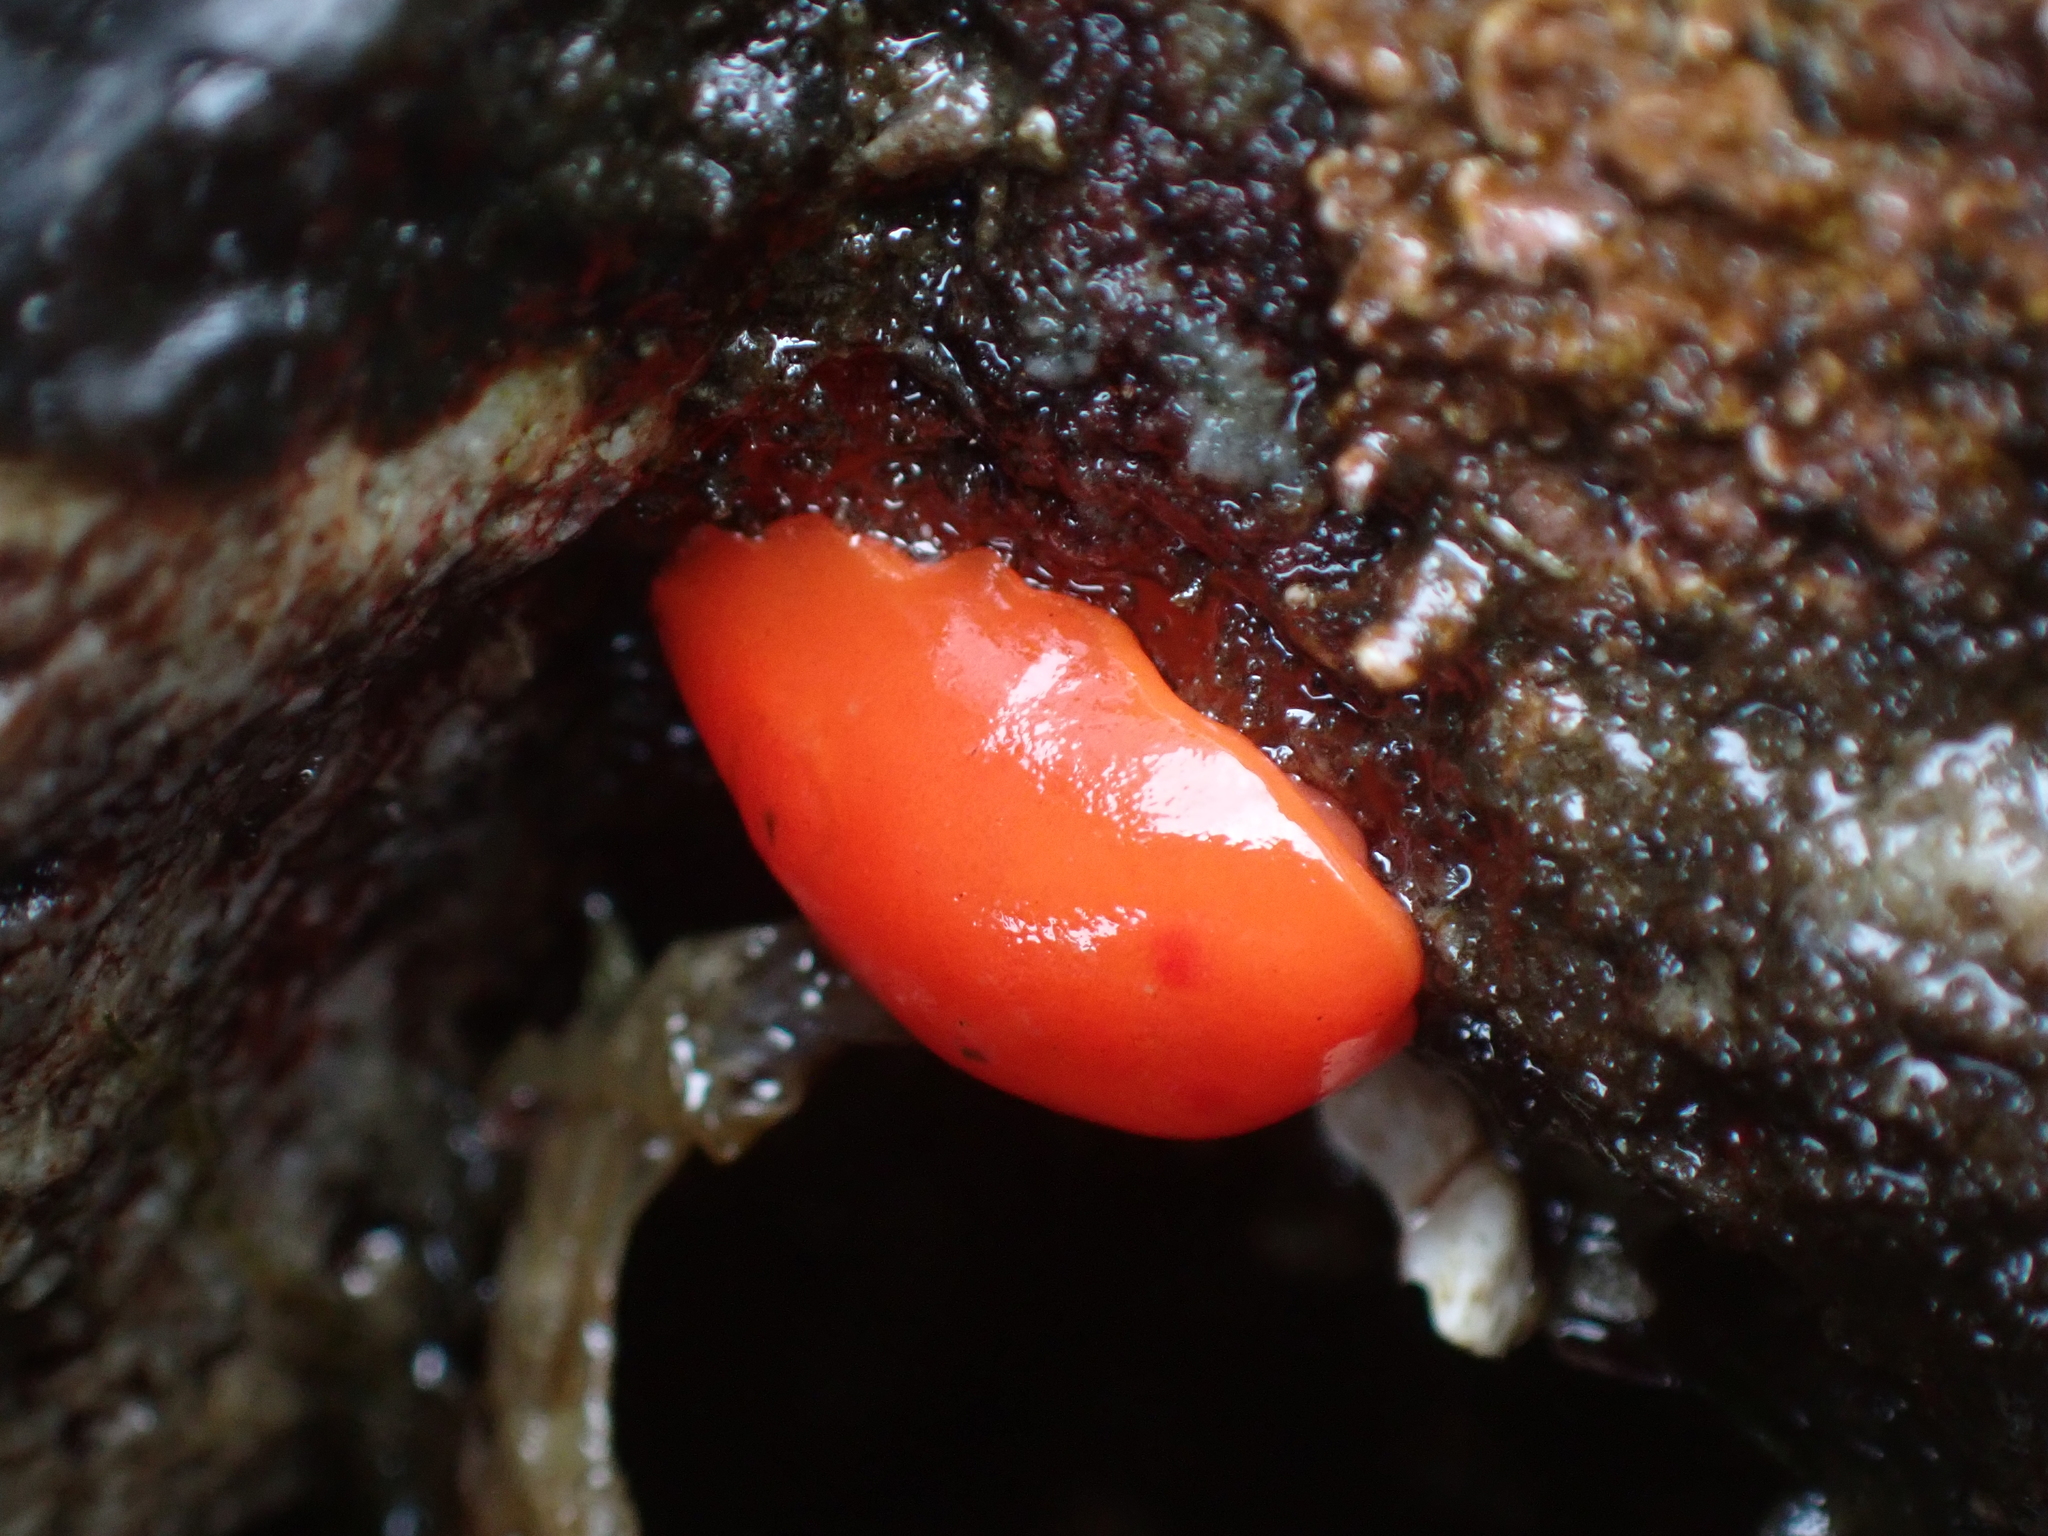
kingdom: Animalia
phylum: Mollusca
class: Gastropoda
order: Nudibranchia
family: Discodorididae
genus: Rostanga
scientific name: Rostanga pulchra
